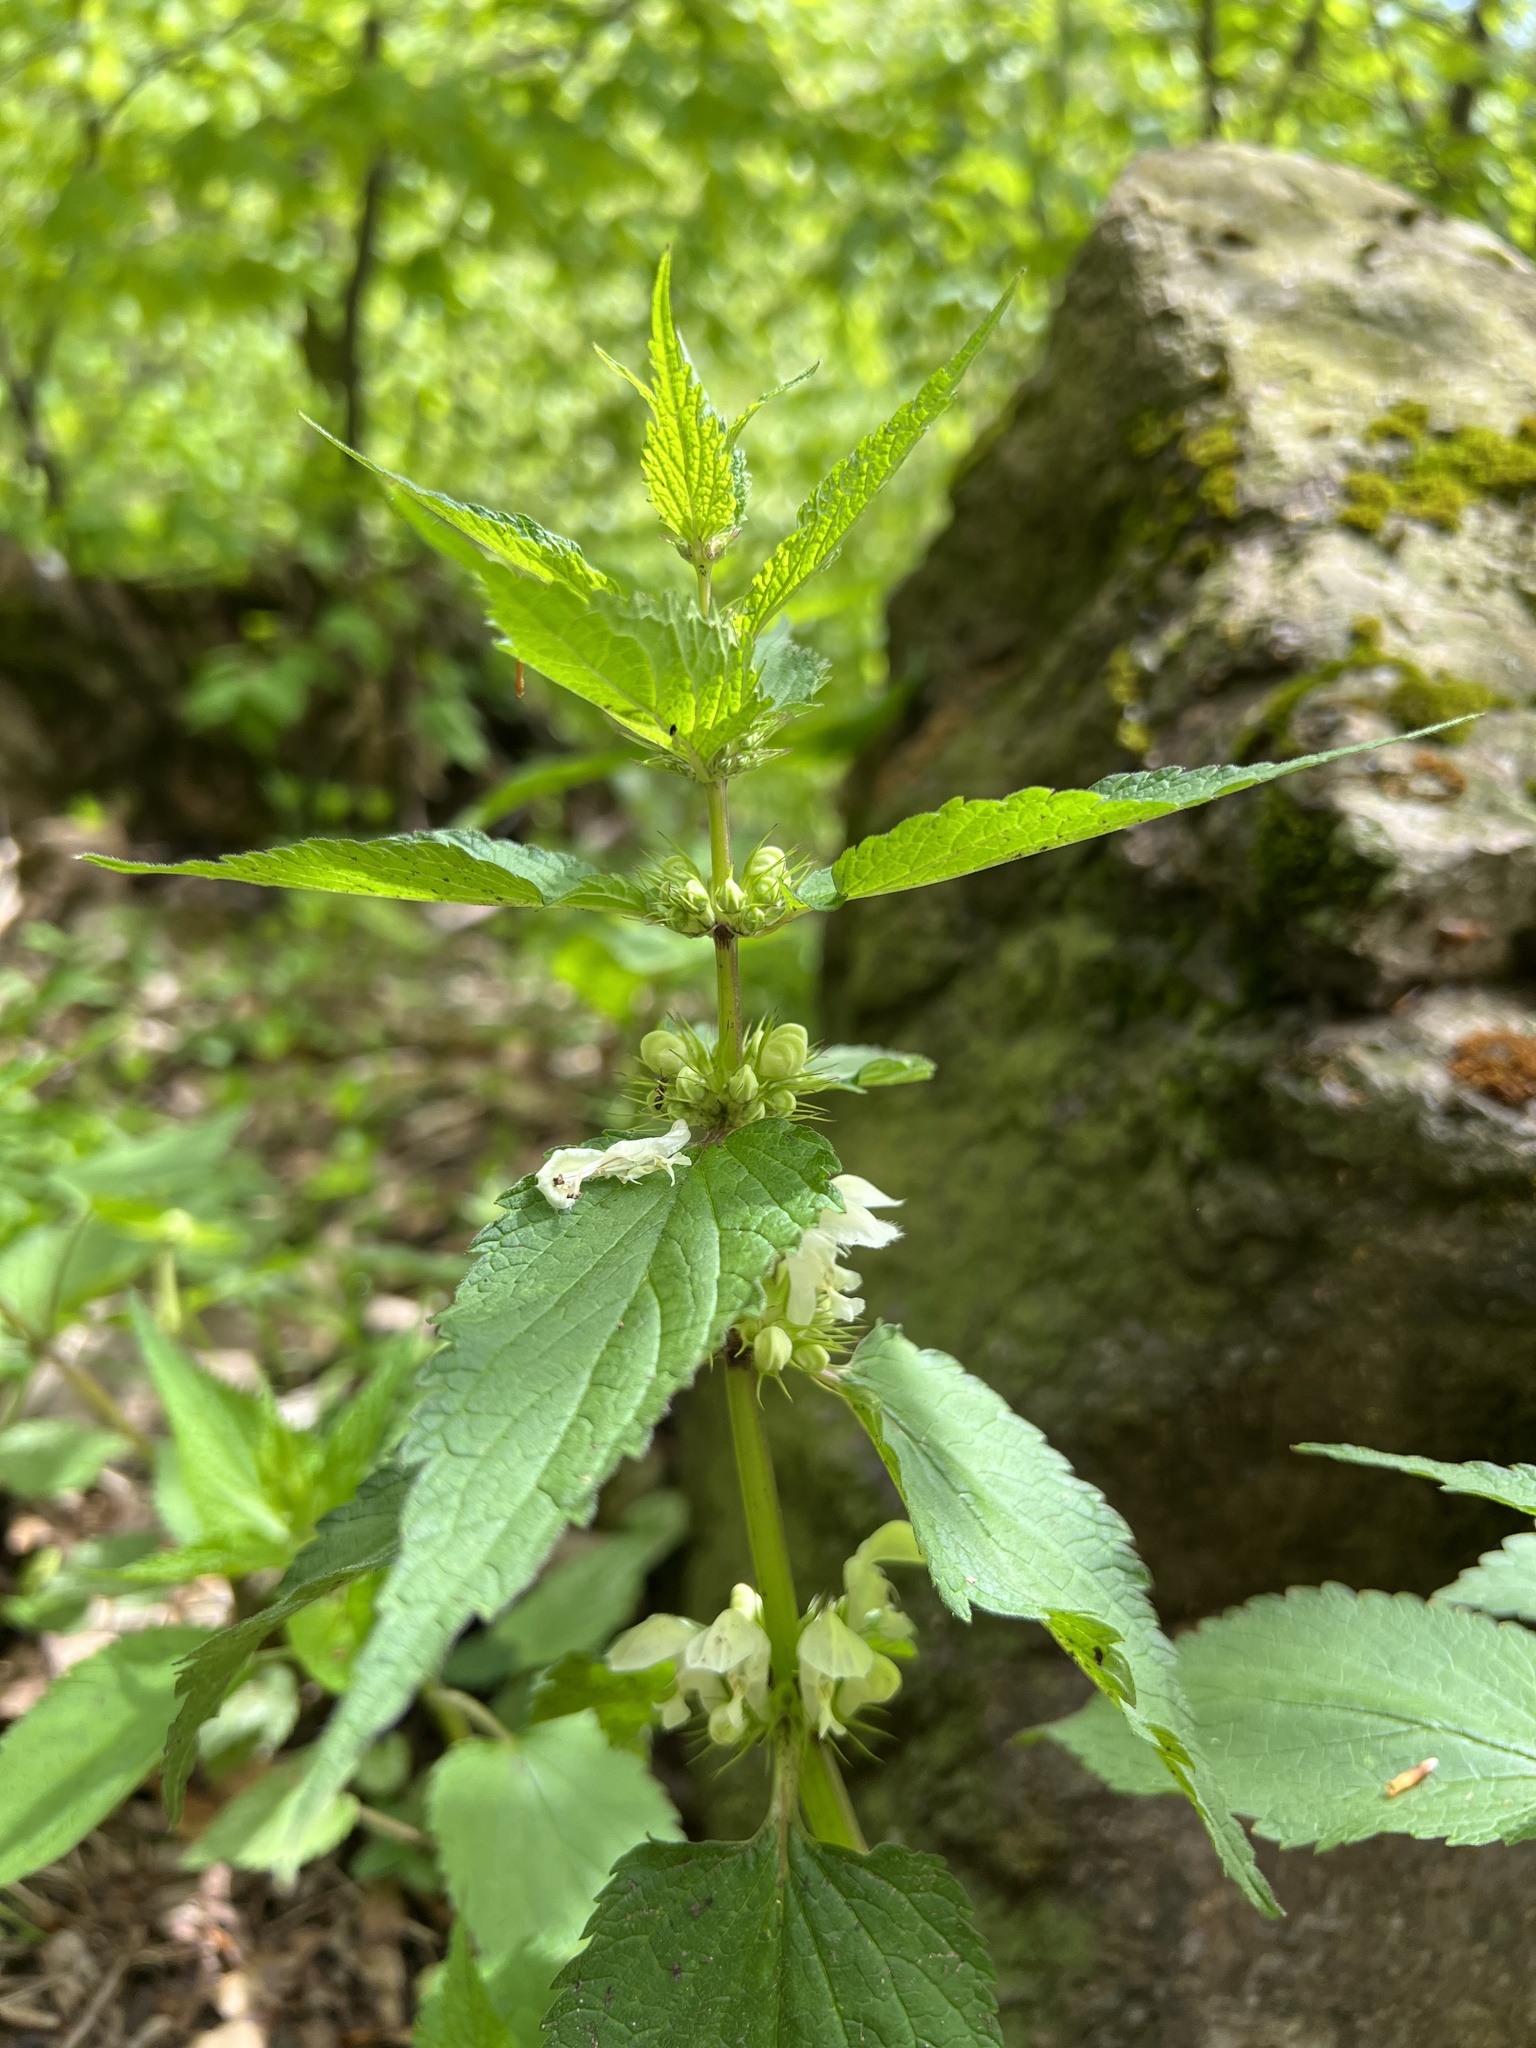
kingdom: Plantae
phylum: Tracheophyta
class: Magnoliopsida
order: Lamiales
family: Lamiaceae
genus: Lamium
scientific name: Lamium album
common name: White dead-nettle
